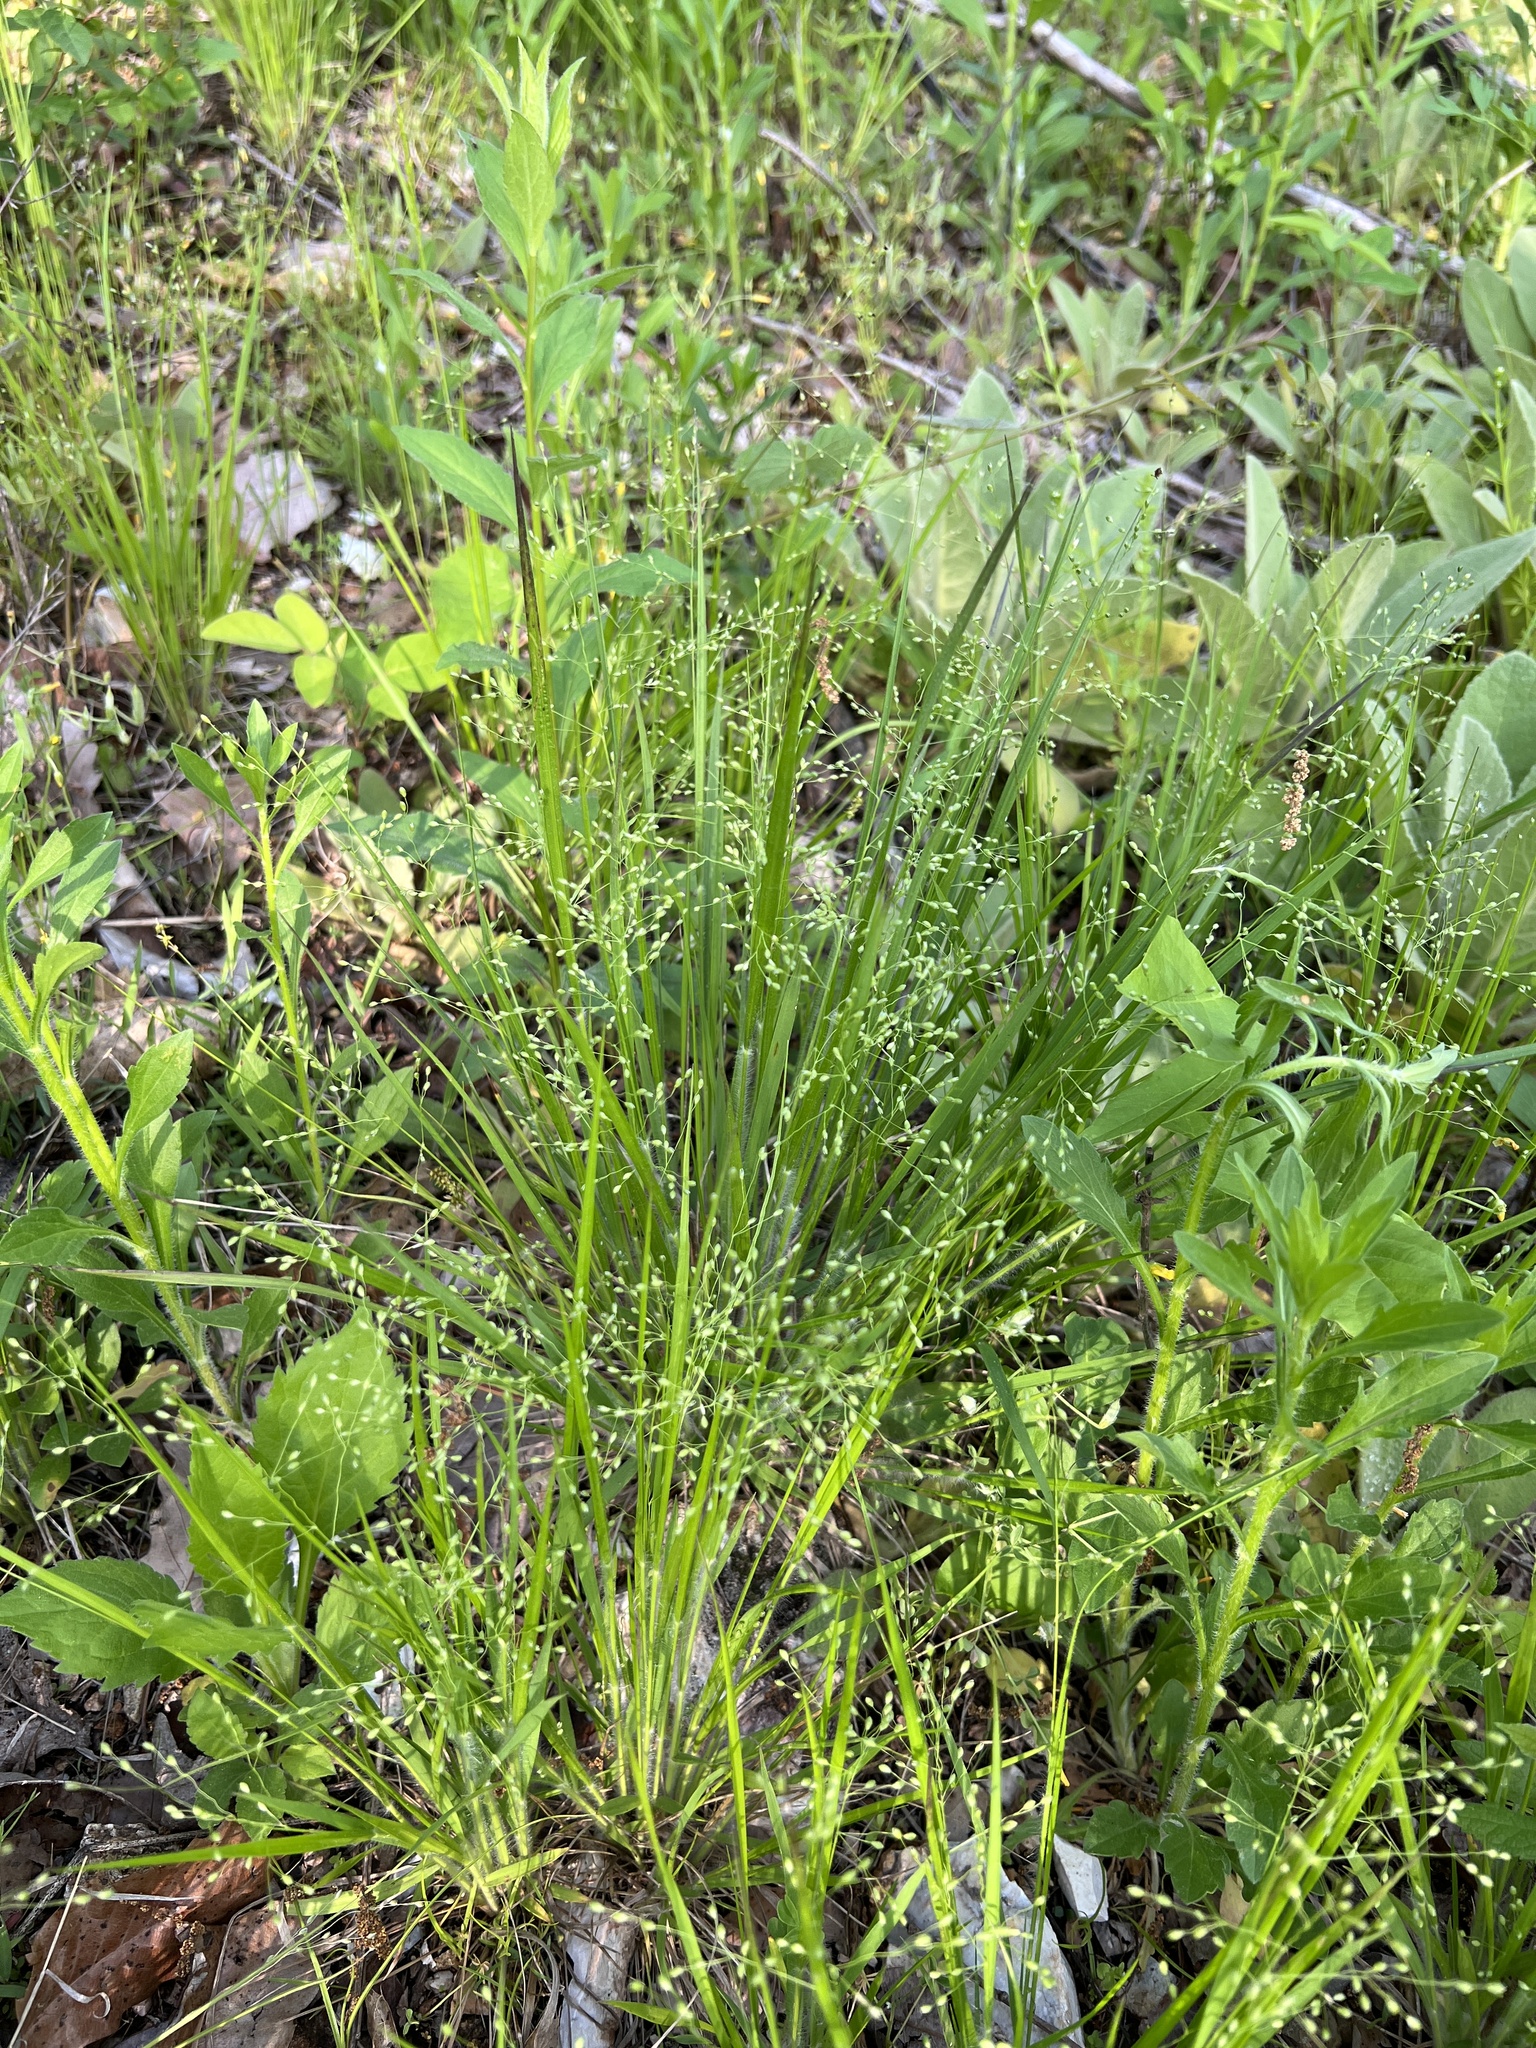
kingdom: Plantae
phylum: Tracheophyta
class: Liliopsida
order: Poales
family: Poaceae
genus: Dichanthelium
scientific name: Dichanthelium linearifolium
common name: Linear-leaved panicgrass
